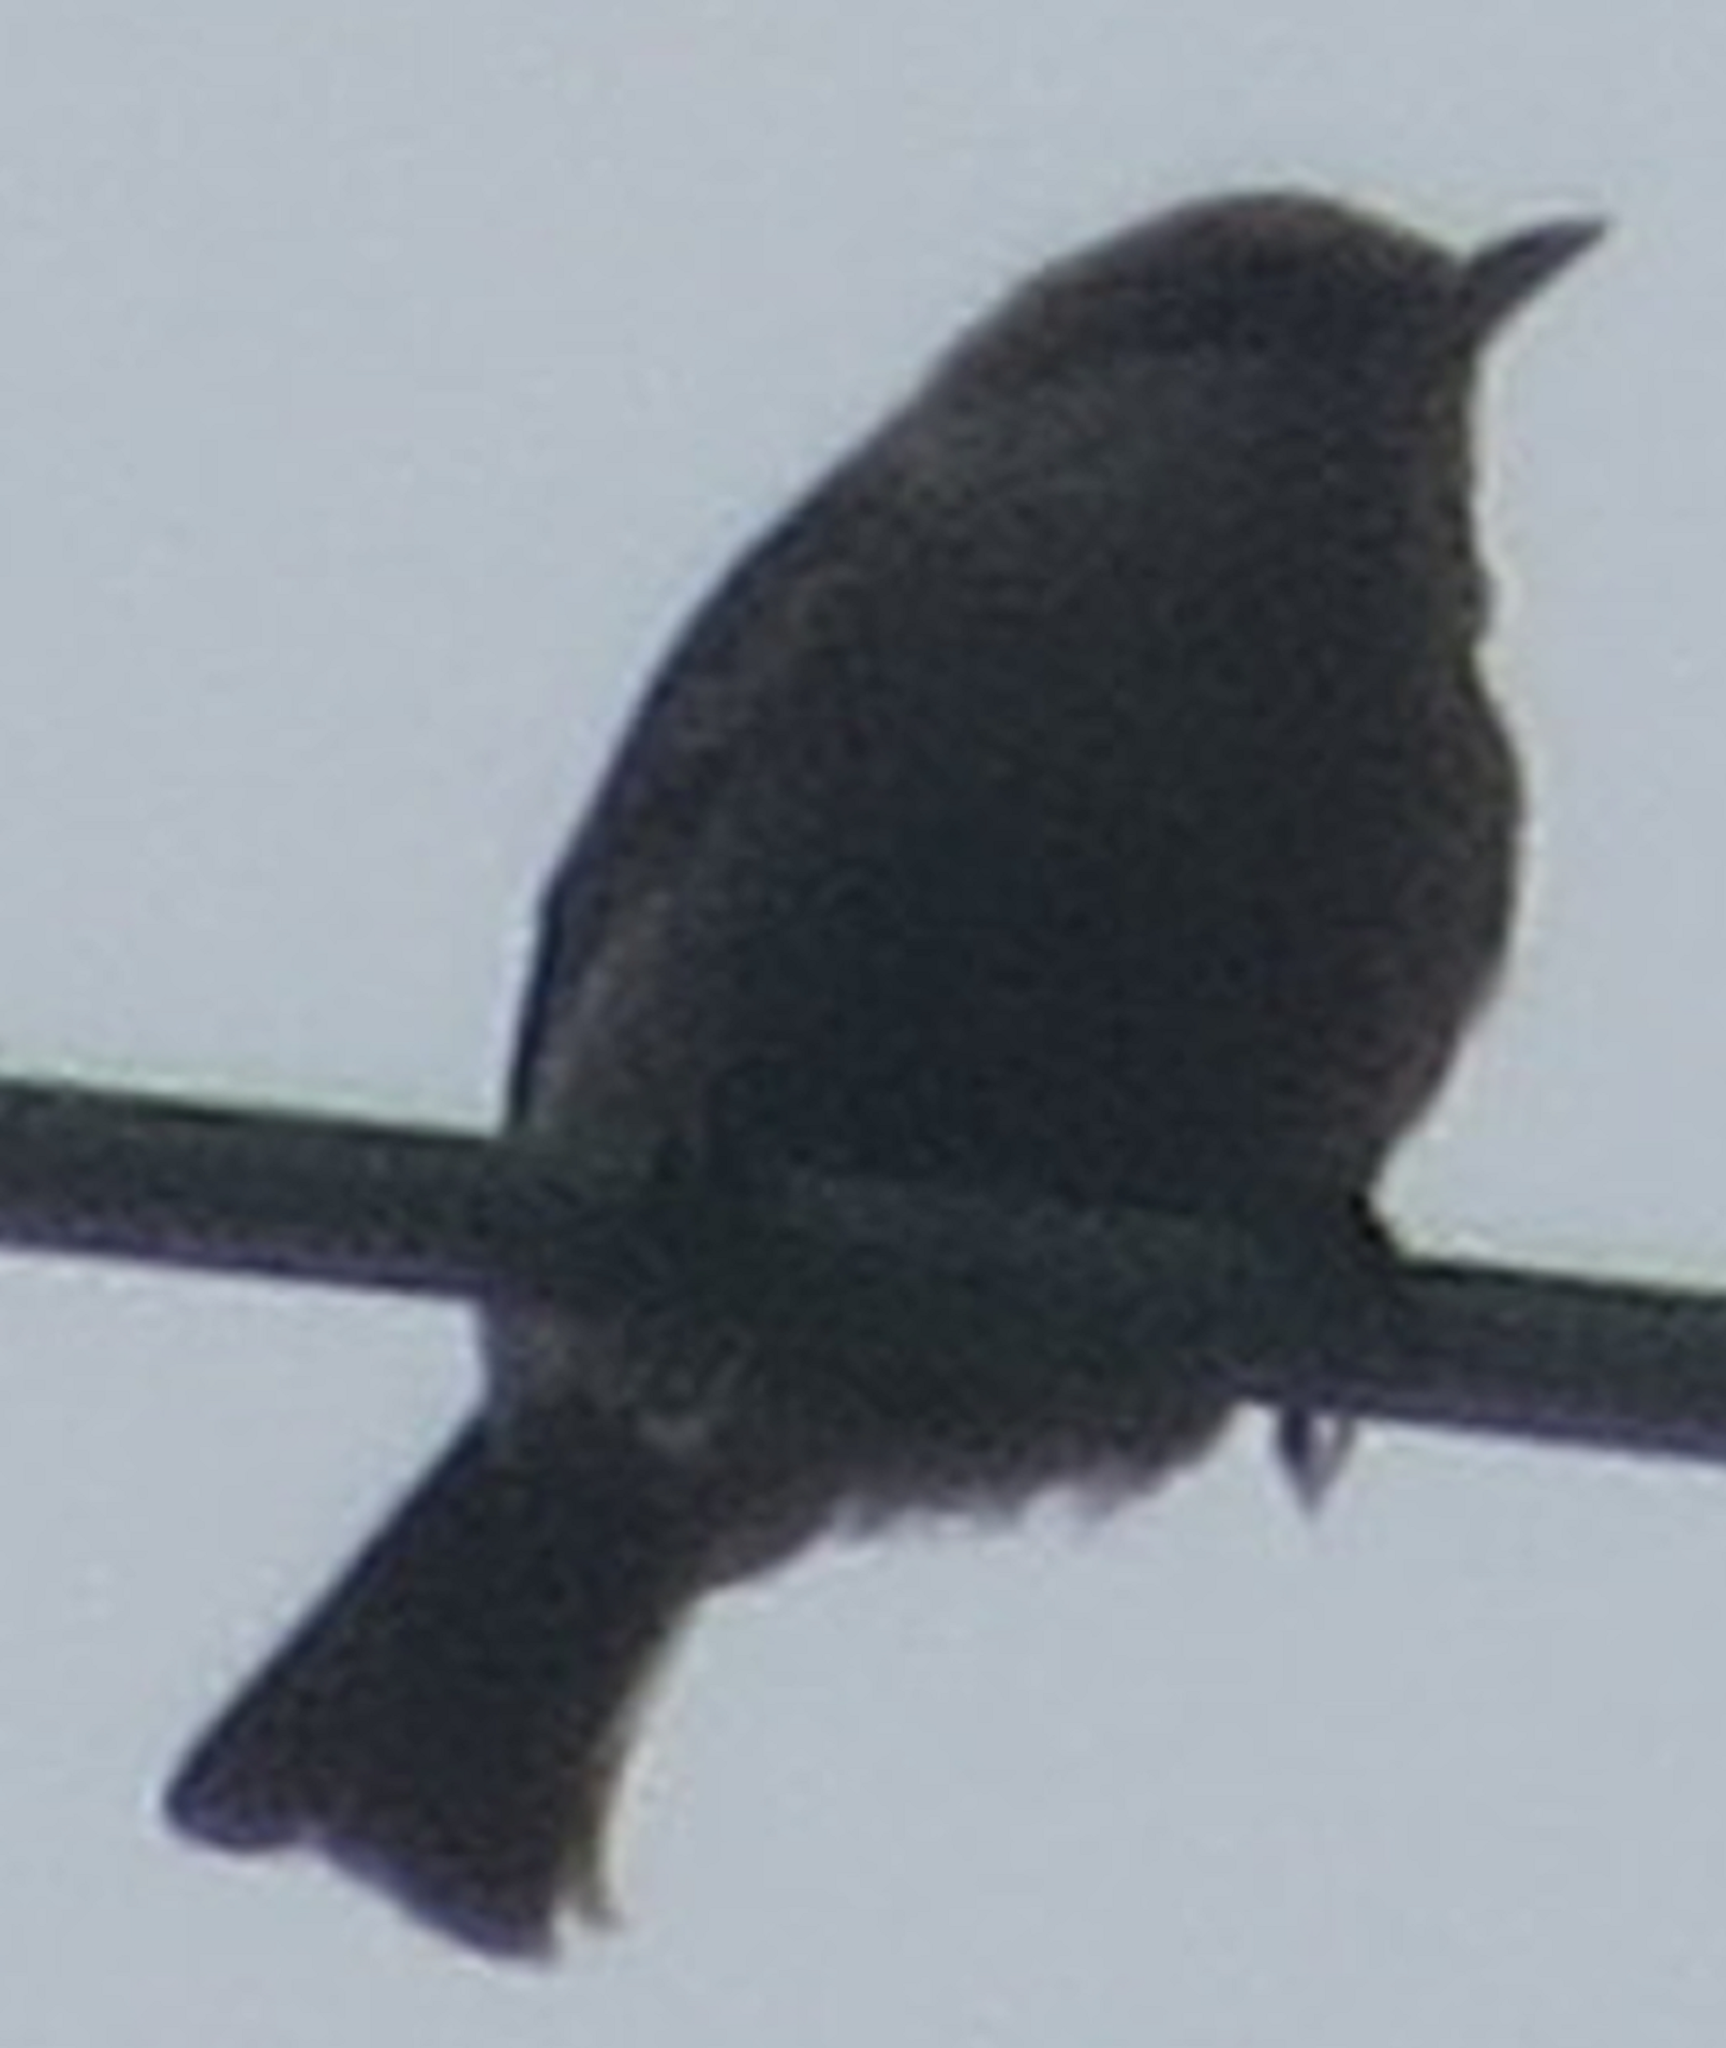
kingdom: Animalia
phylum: Chordata
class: Aves
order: Passeriformes
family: Sittidae
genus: Sitta
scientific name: Sitta pusilla
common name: Brown-headed nuthatch
